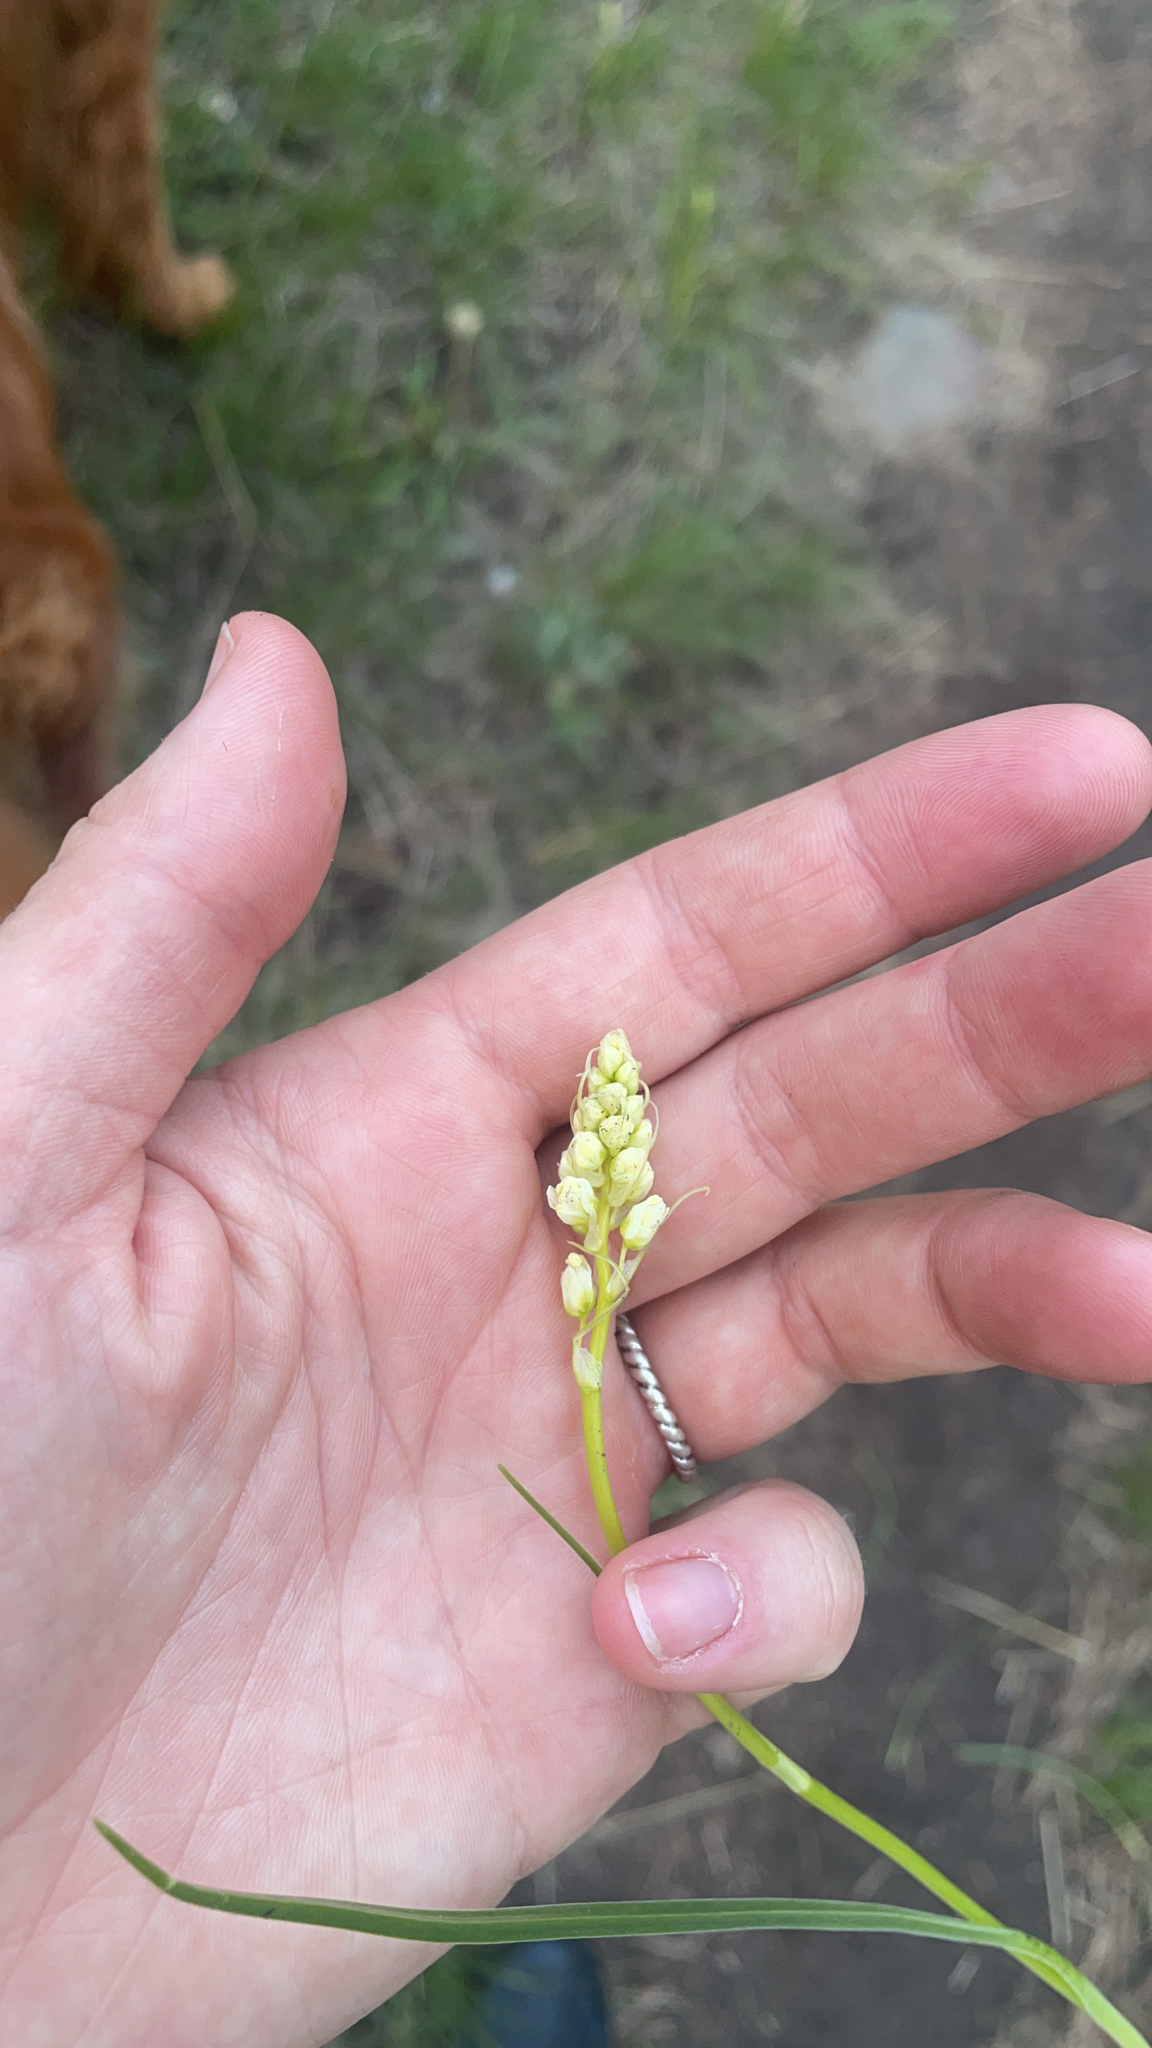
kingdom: Plantae
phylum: Tracheophyta
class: Liliopsida
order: Liliales
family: Melanthiaceae
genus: Toxicoscordion
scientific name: Toxicoscordion venenosum
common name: Meadow death camas
